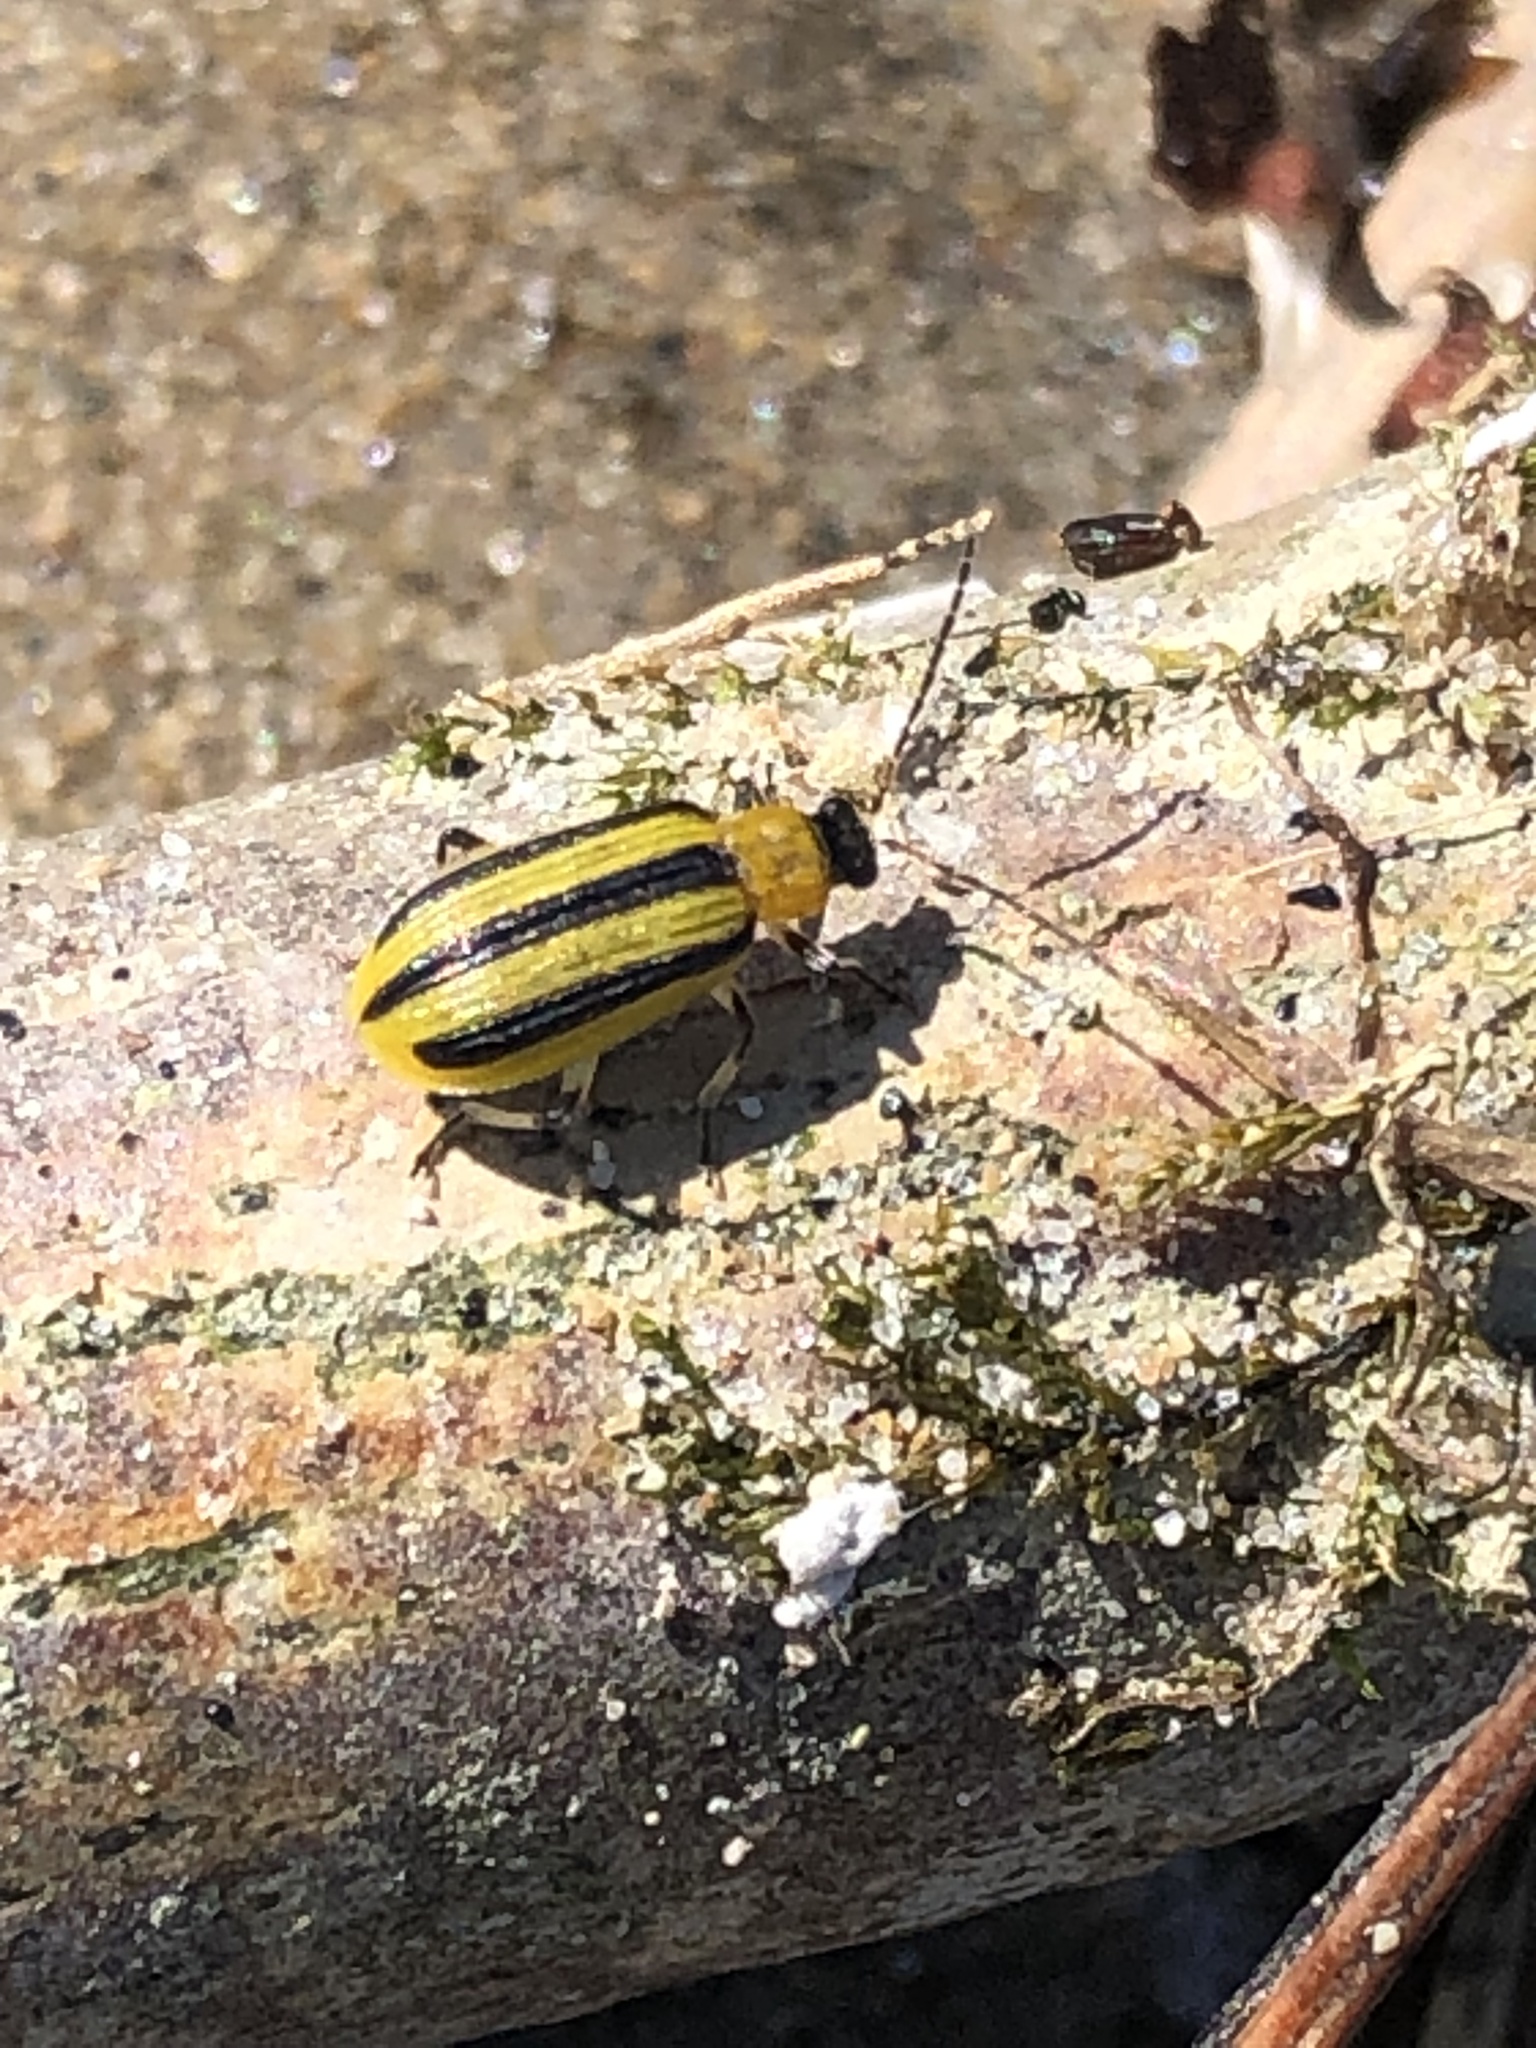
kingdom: Animalia
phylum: Arthropoda
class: Insecta
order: Coleoptera
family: Chrysomelidae
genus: Acalymma
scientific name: Acalymma vittatum
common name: Striped cucumber beetle
